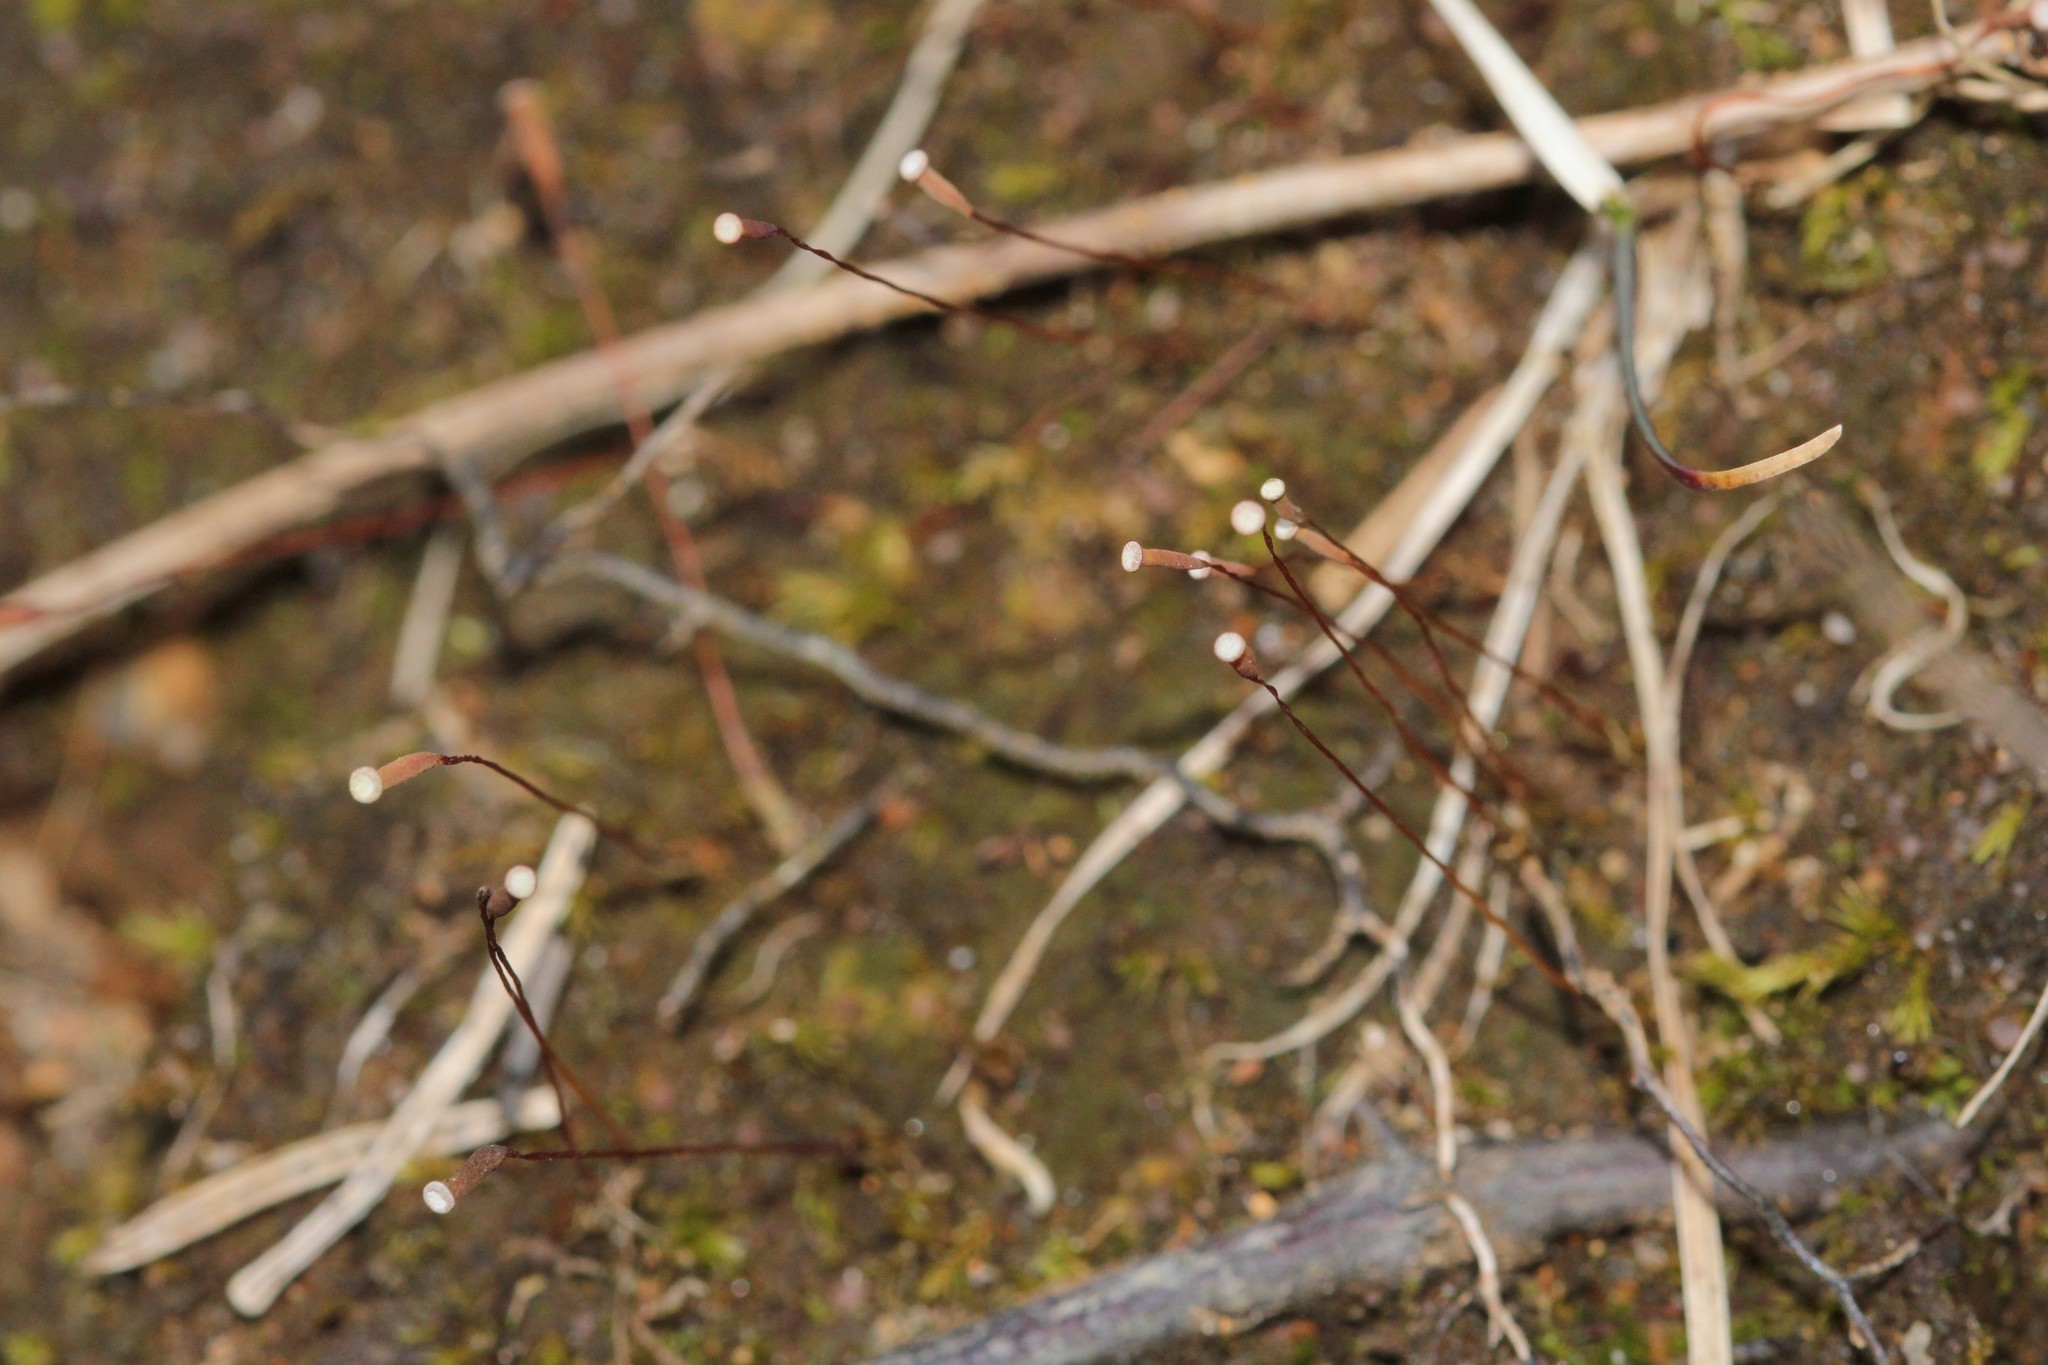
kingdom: Plantae
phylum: Bryophyta
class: Polytrichopsida
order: Polytrichales
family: Polytrichaceae
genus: Pogonatum
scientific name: Pogonatum pensilvanicum
